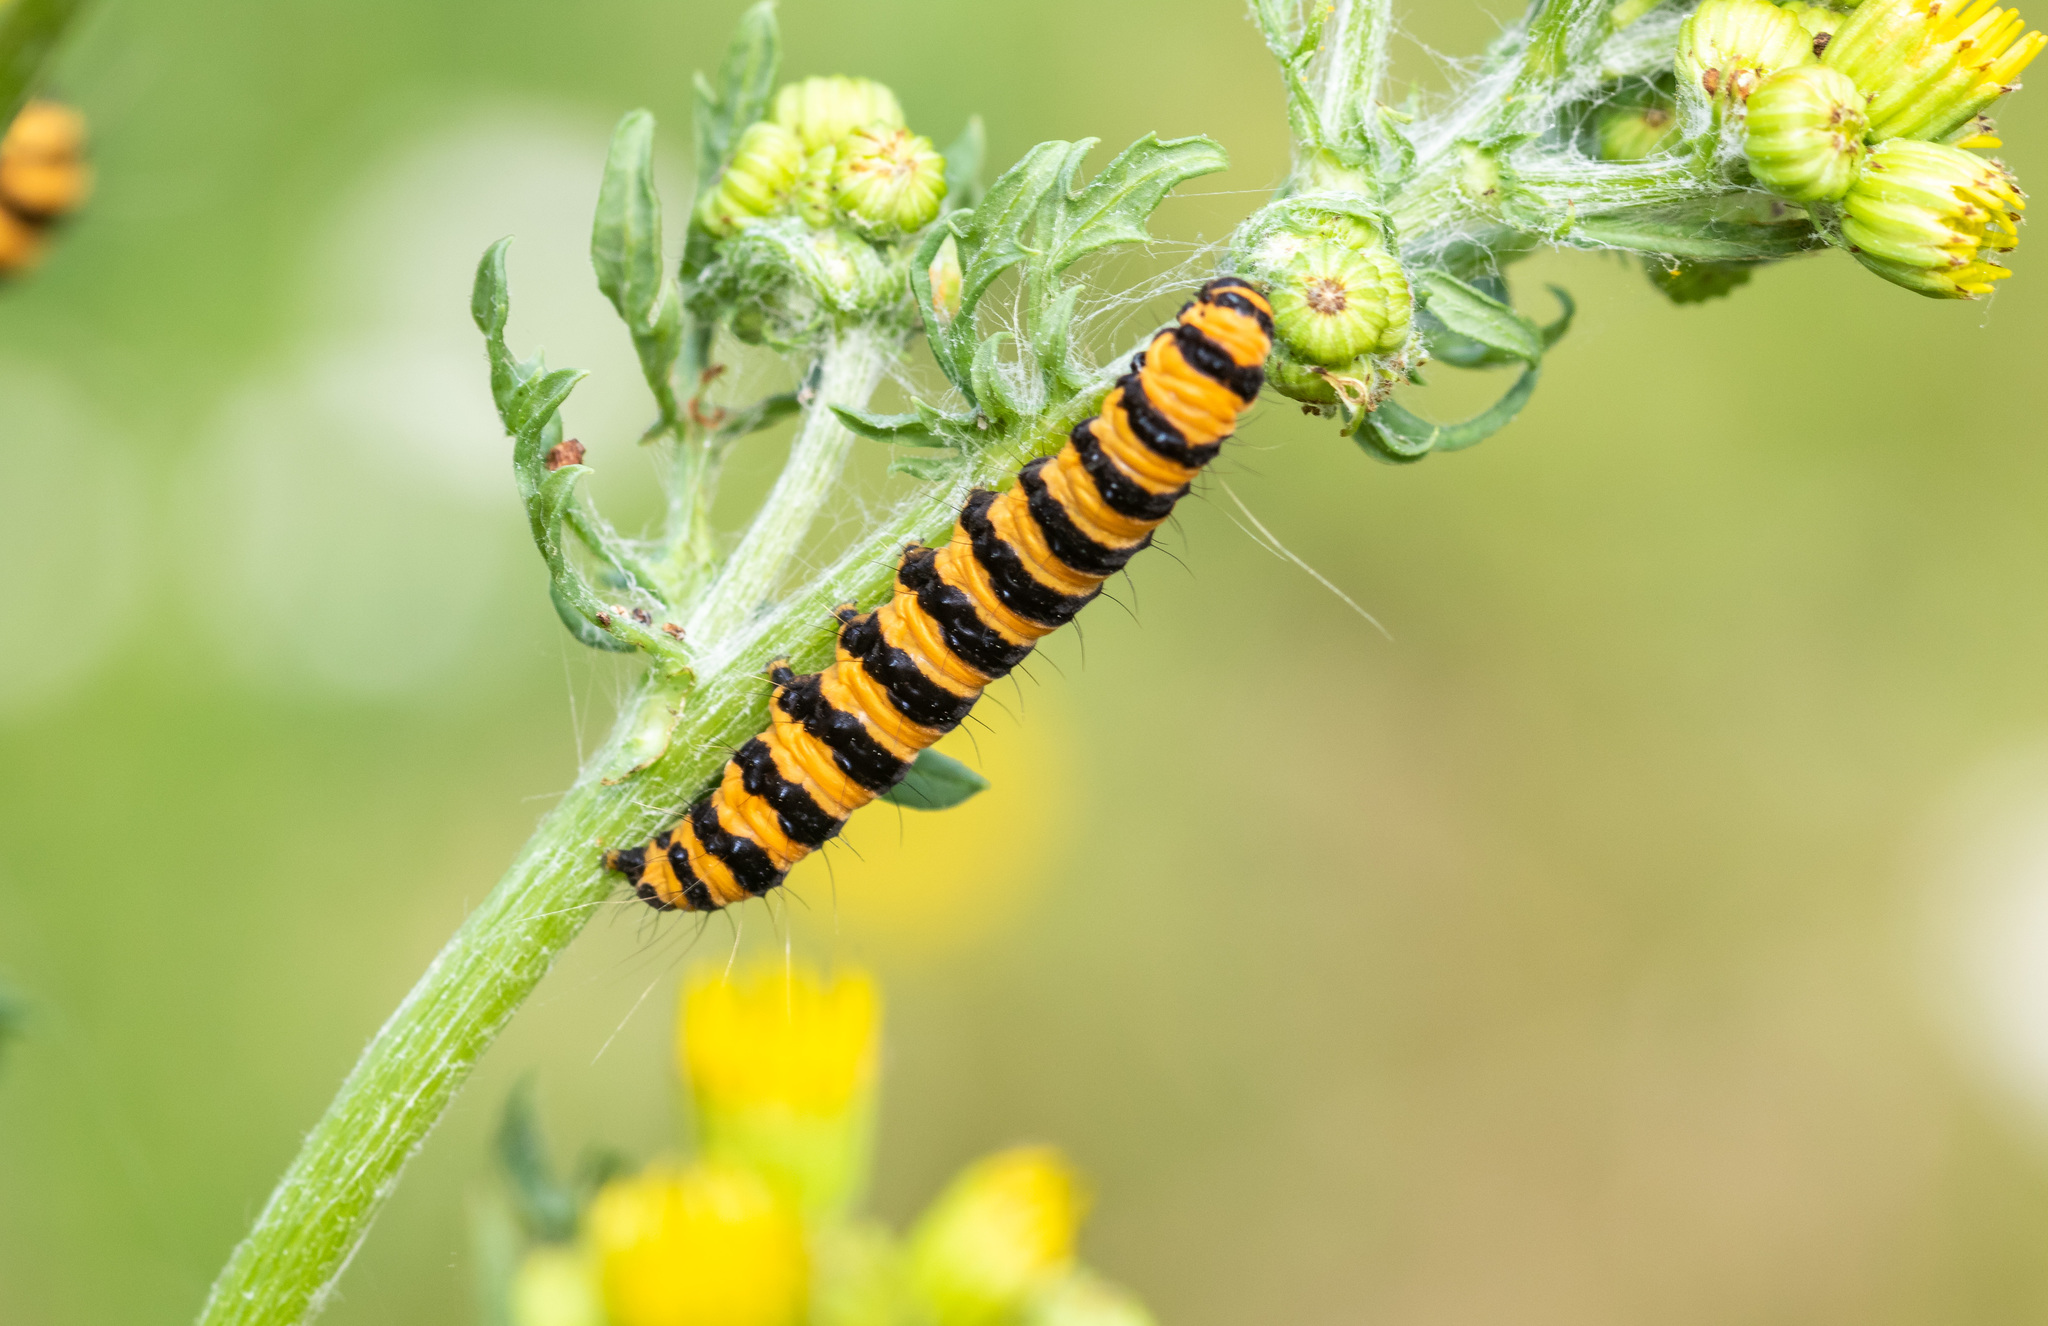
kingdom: Animalia
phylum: Arthropoda
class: Insecta
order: Lepidoptera
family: Erebidae
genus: Tyria
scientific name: Tyria jacobaeae
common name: Cinnabar
